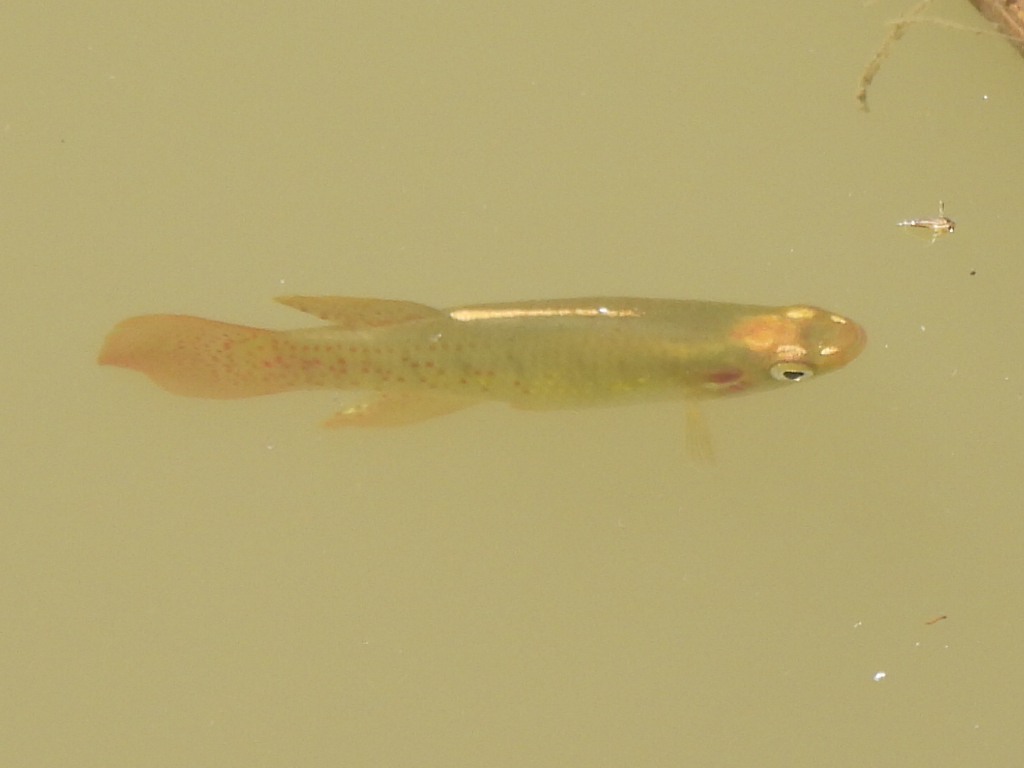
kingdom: Animalia
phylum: Chordata
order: Cyprinodontiformes
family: Fundulidae
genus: Fundulus
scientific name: Fundulus chrysotus
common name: Golden topminnow
